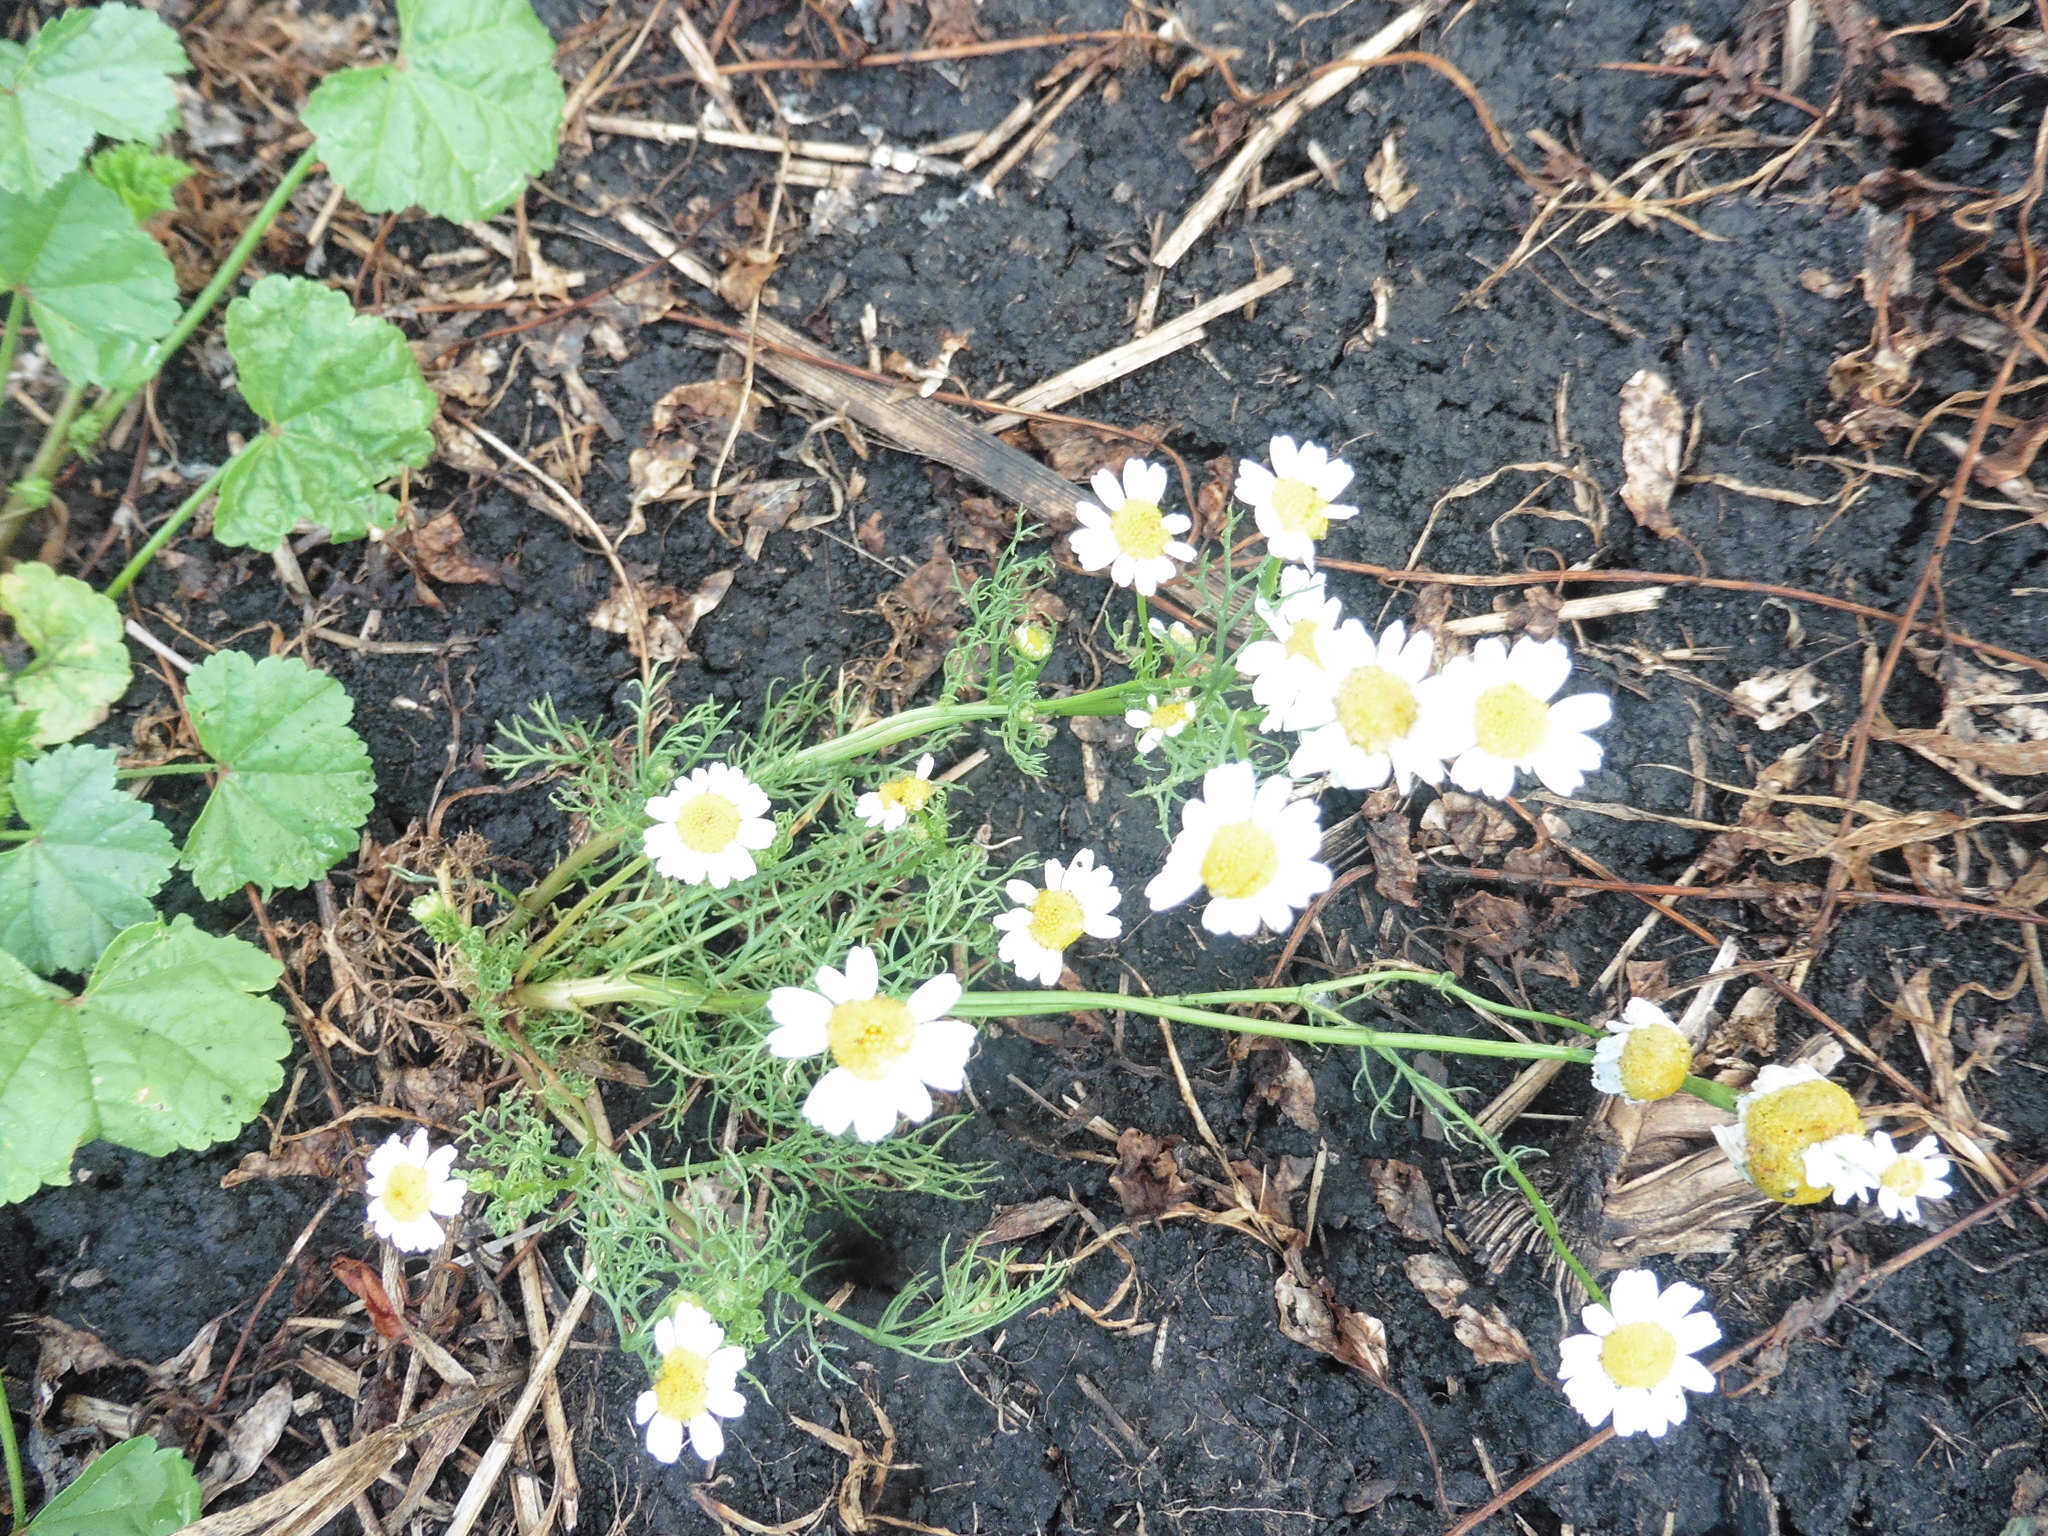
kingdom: Plantae
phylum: Tracheophyta
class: Magnoliopsida
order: Asterales
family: Asteraceae
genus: Tripleurospermum
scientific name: Tripleurospermum inodorum
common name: Scentless mayweed
